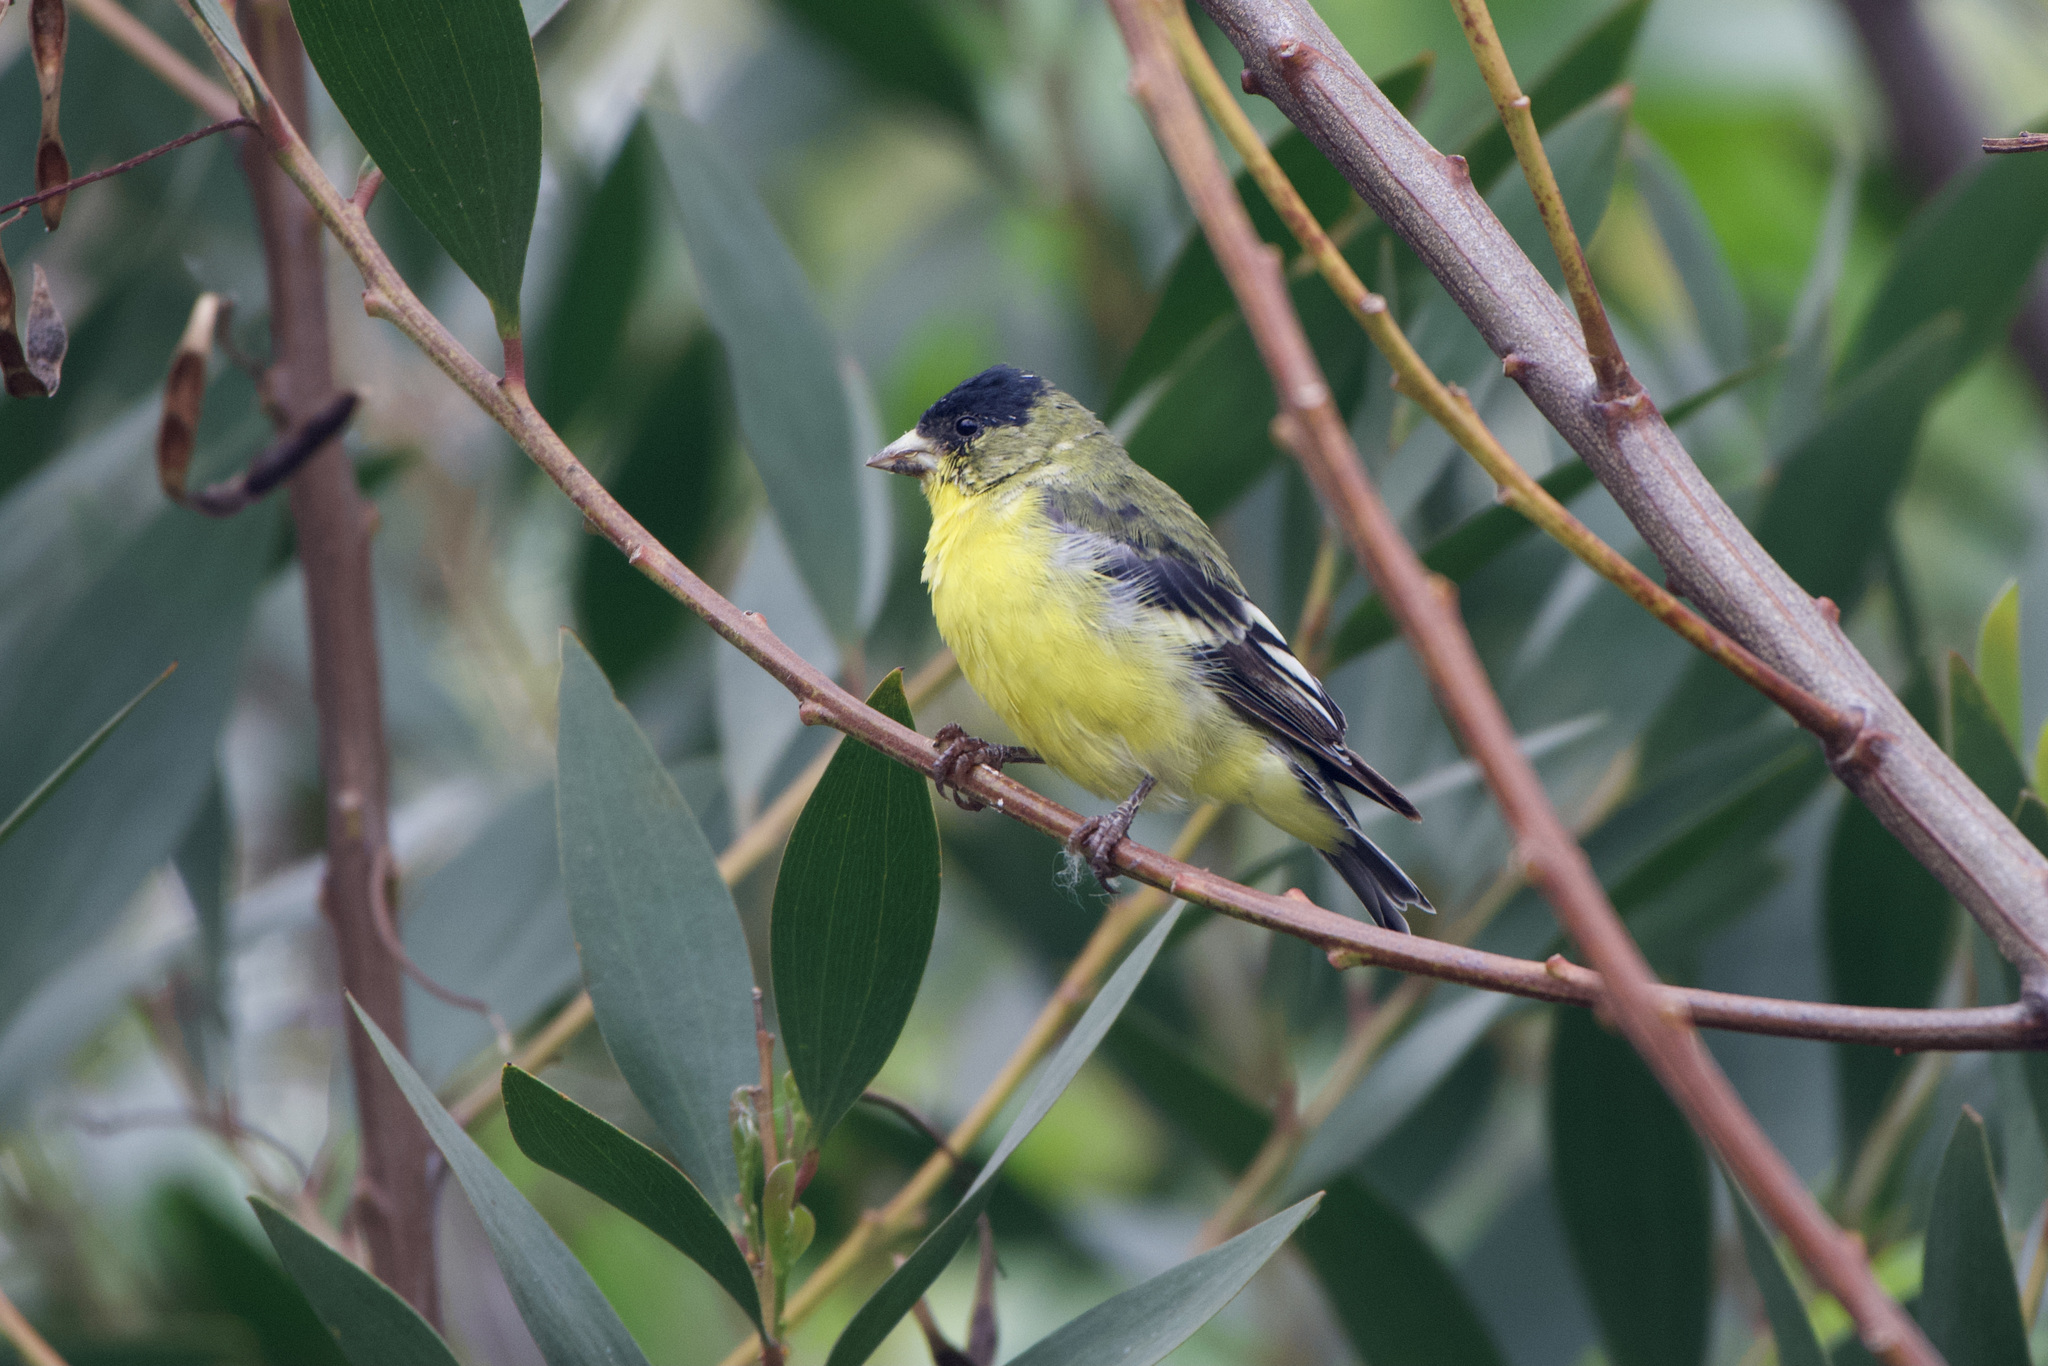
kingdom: Animalia
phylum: Chordata
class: Aves
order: Passeriformes
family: Fringillidae
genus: Spinus
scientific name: Spinus psaltria
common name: Lesser goldfinch
